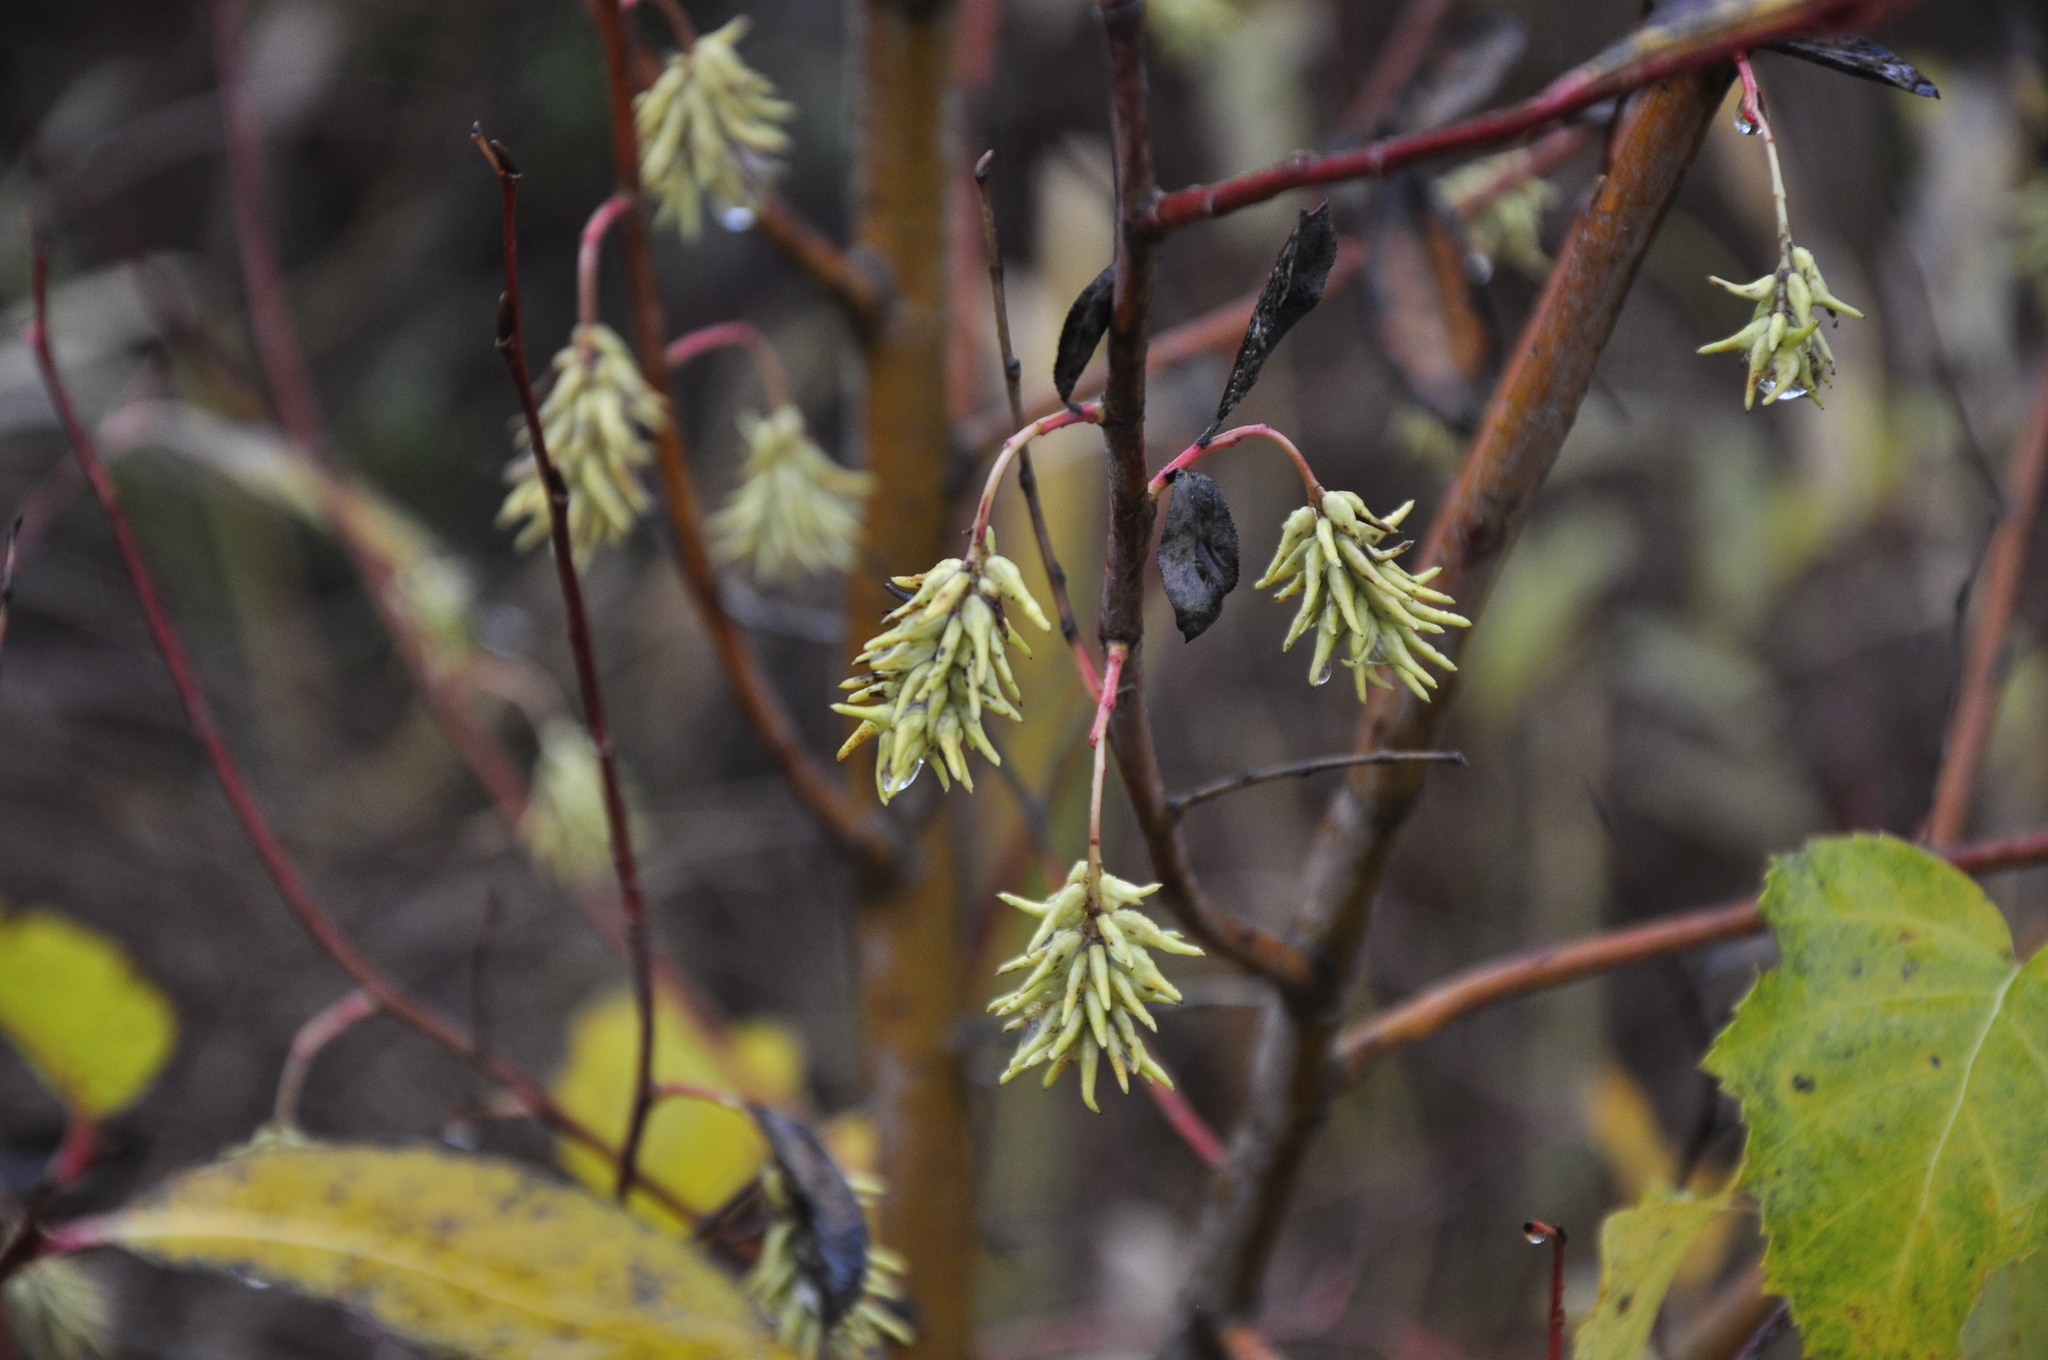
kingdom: Plantae
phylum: Tracheophyta
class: Magnoliopsida
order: Malpighiales
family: Salicaceae
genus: Salix
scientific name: Salix pentandra
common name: Bay willow
